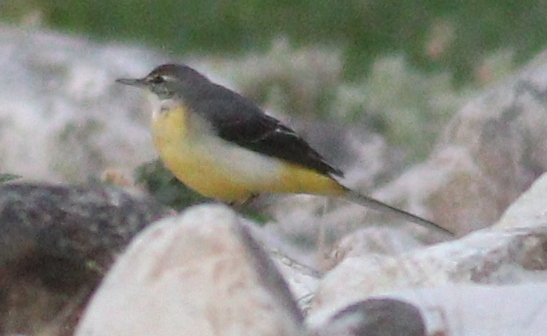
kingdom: Animalia
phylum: Chordata
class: Aves
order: Passeriformes
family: Motacillidae
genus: Motacilla
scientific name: Motacilla cinerea
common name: Grey wagtail
